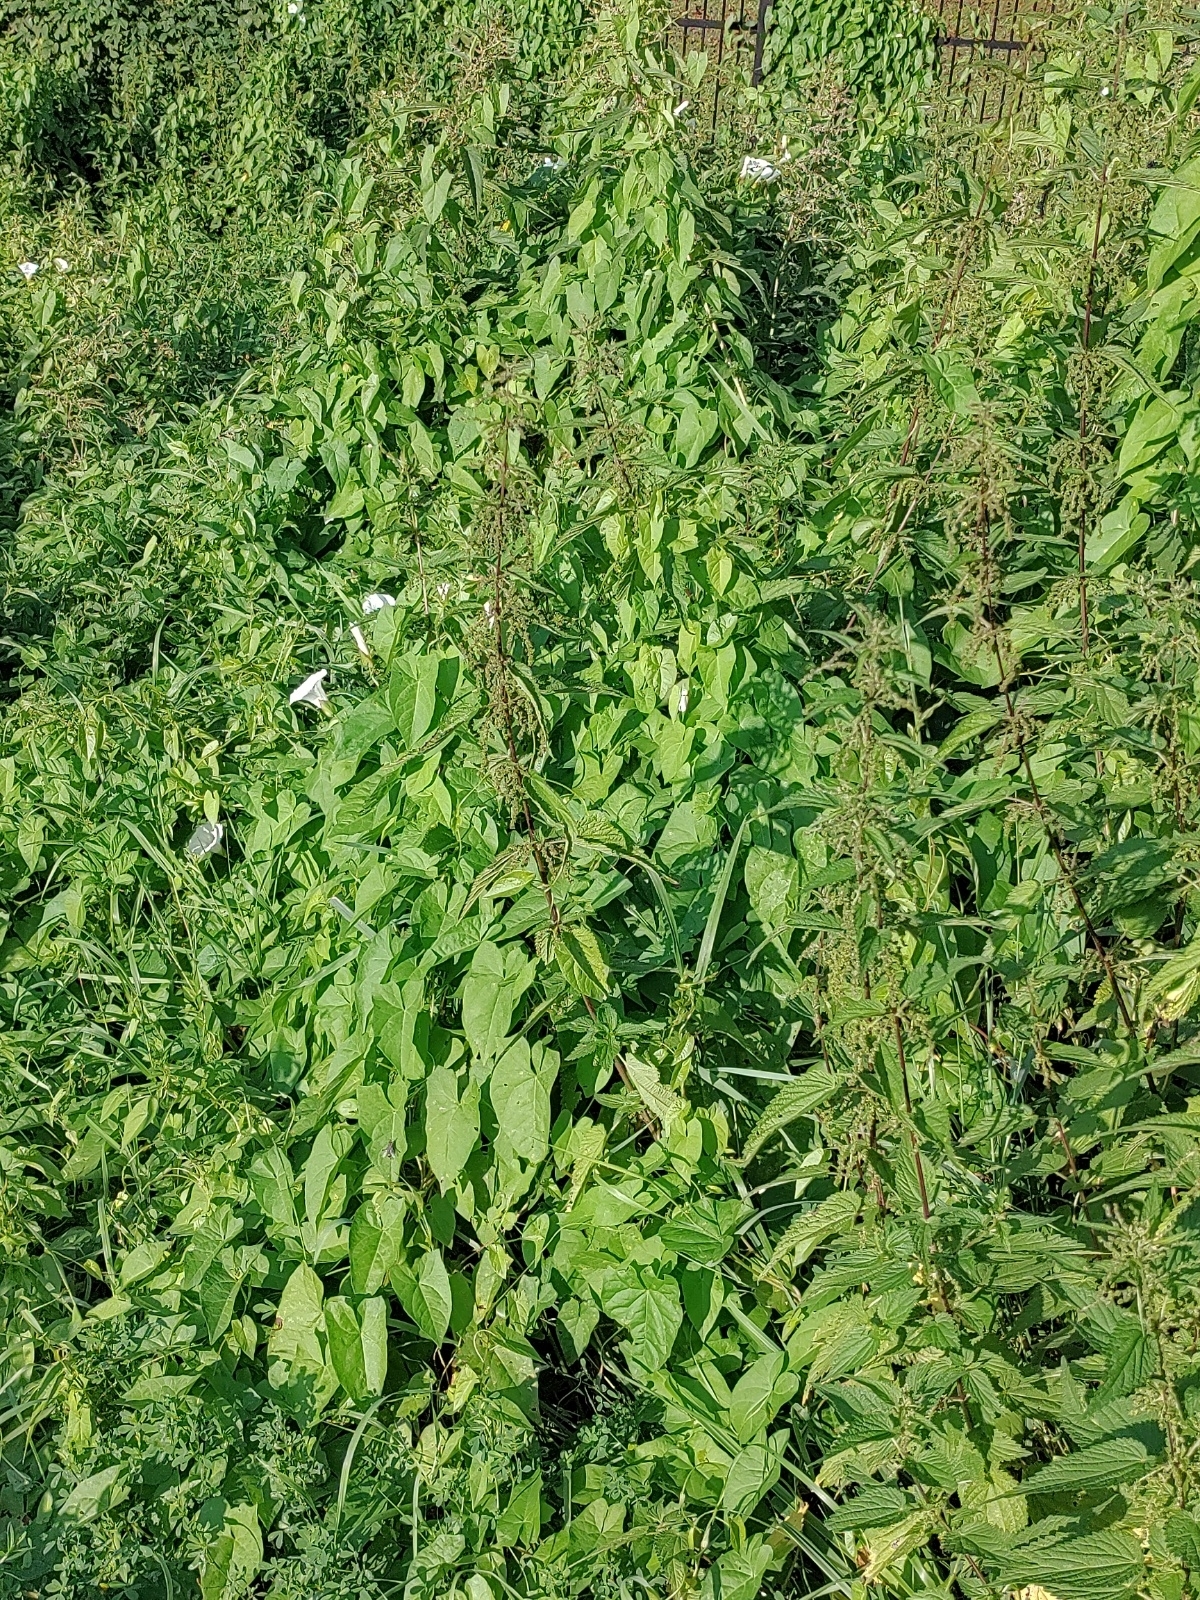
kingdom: Plantae
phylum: Tracheophyta
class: Magnoliopsida
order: Solanales
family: Convolvulaceae
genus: Calystegia
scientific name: Calystegia sepium
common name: Hedge bindweed
